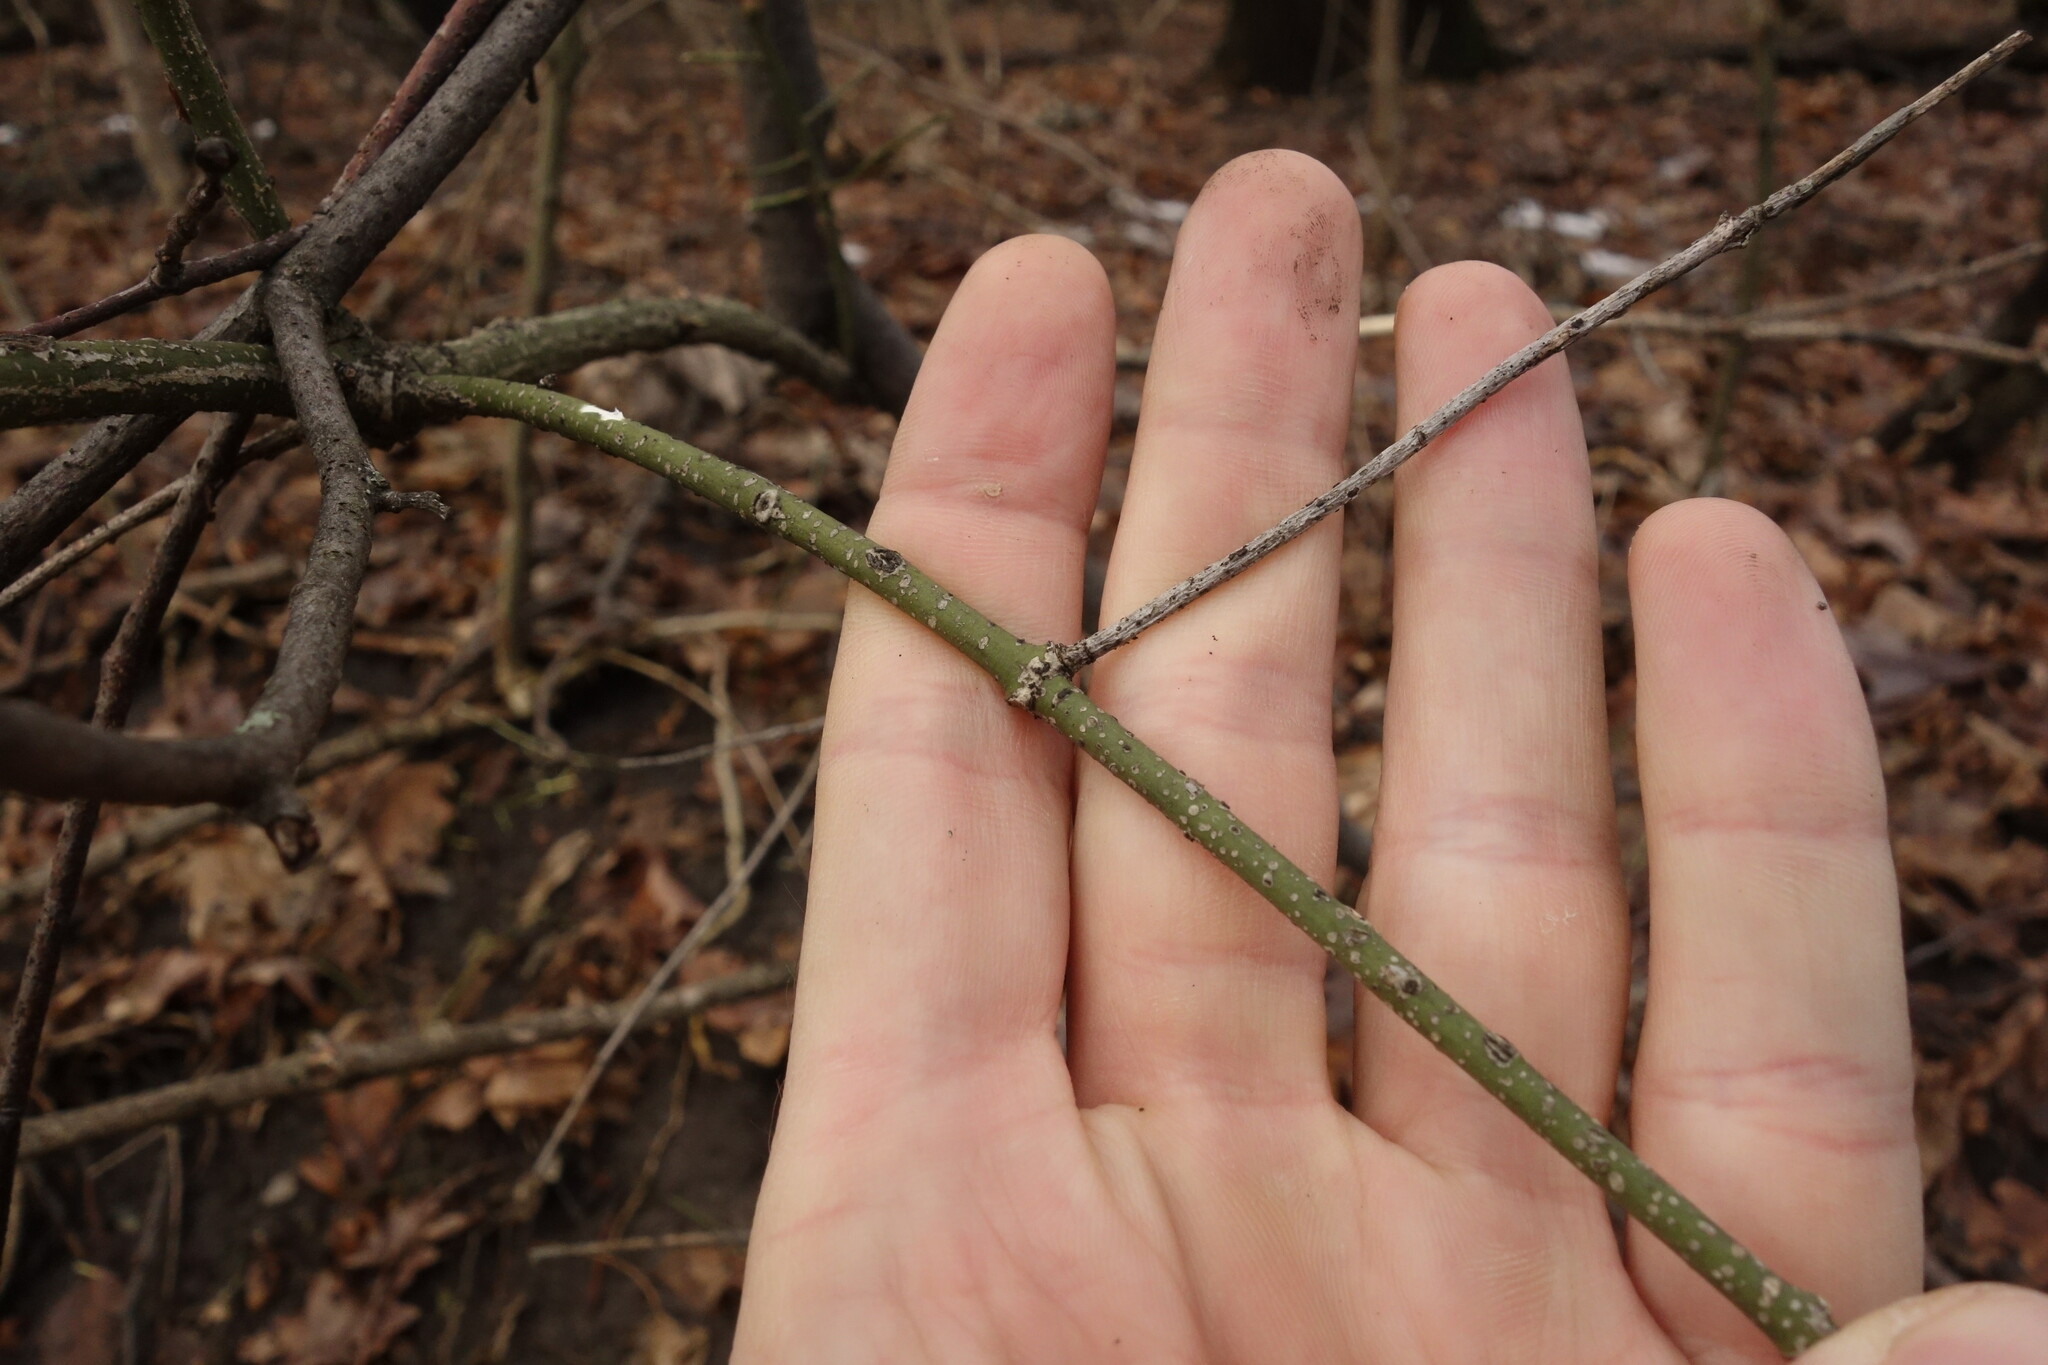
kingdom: Plantae
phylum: Tracheophyta
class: Magnoliopsida
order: Celastrales
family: Celastraceae
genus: Euonymus
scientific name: Euonymus verrucosus
